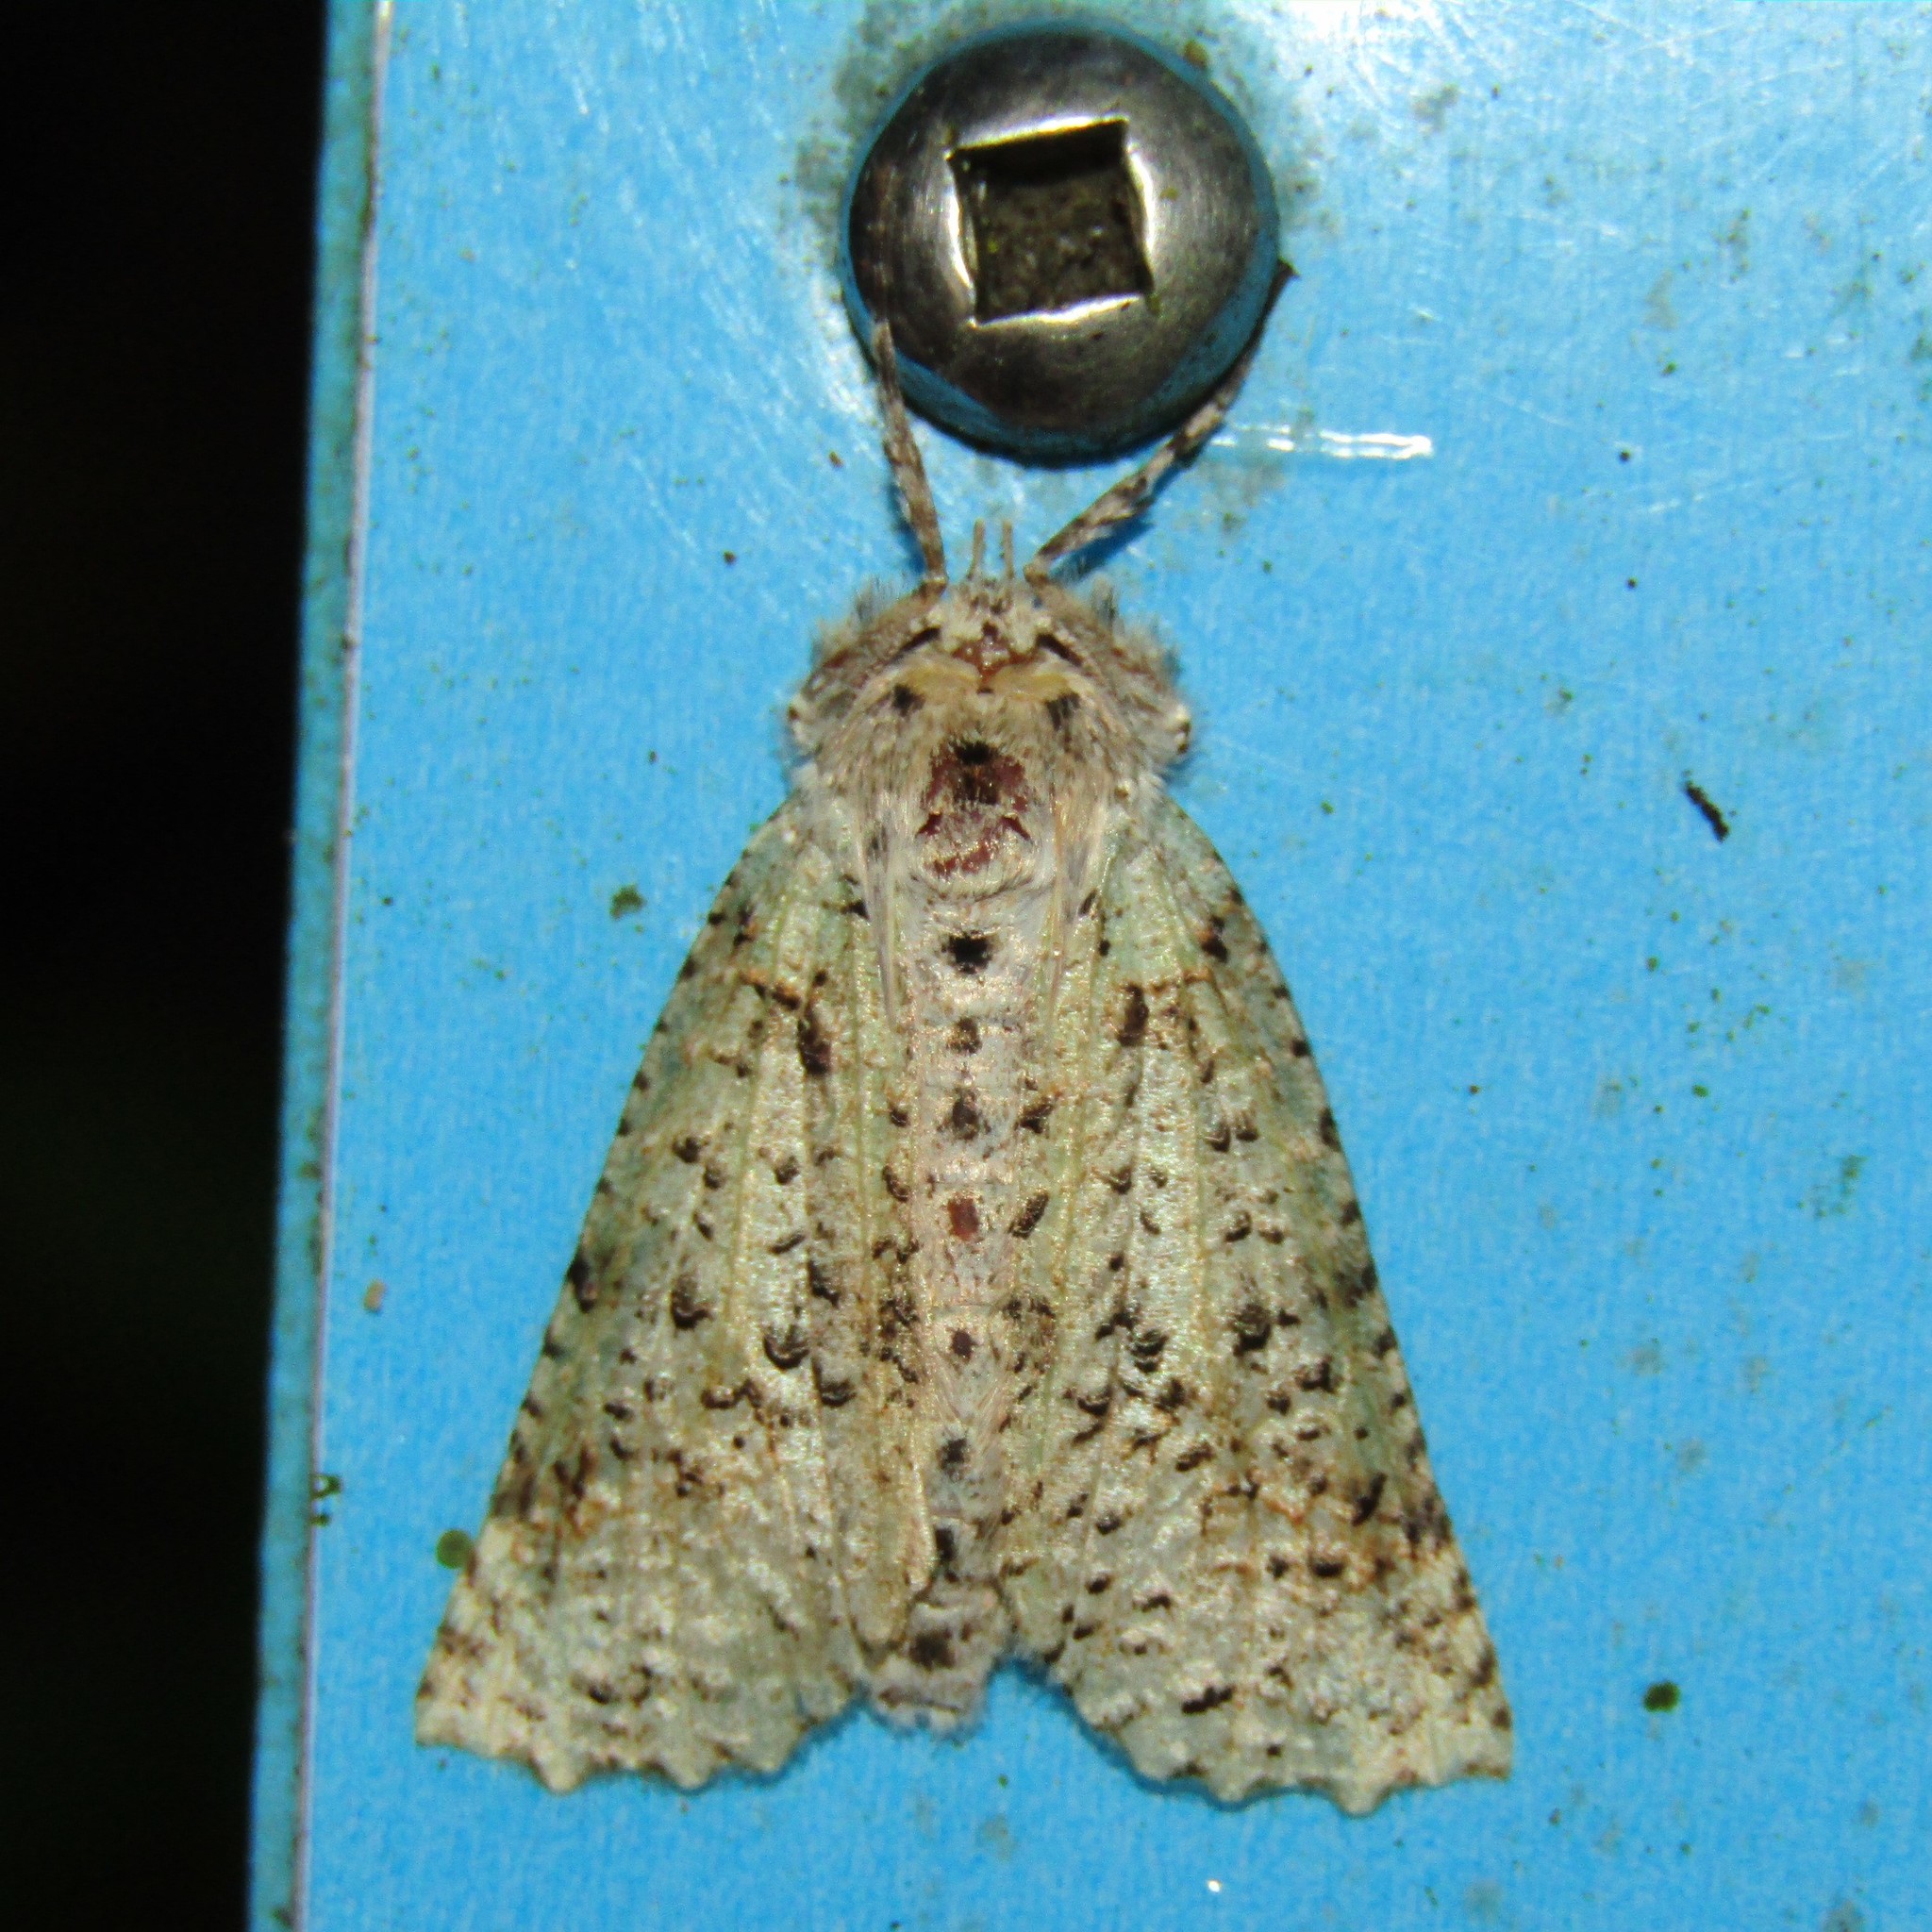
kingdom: Animalia
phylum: Arthropoda
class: Insecta
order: Lepidoptera
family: Geometridae
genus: Declana
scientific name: Declana floccosa
